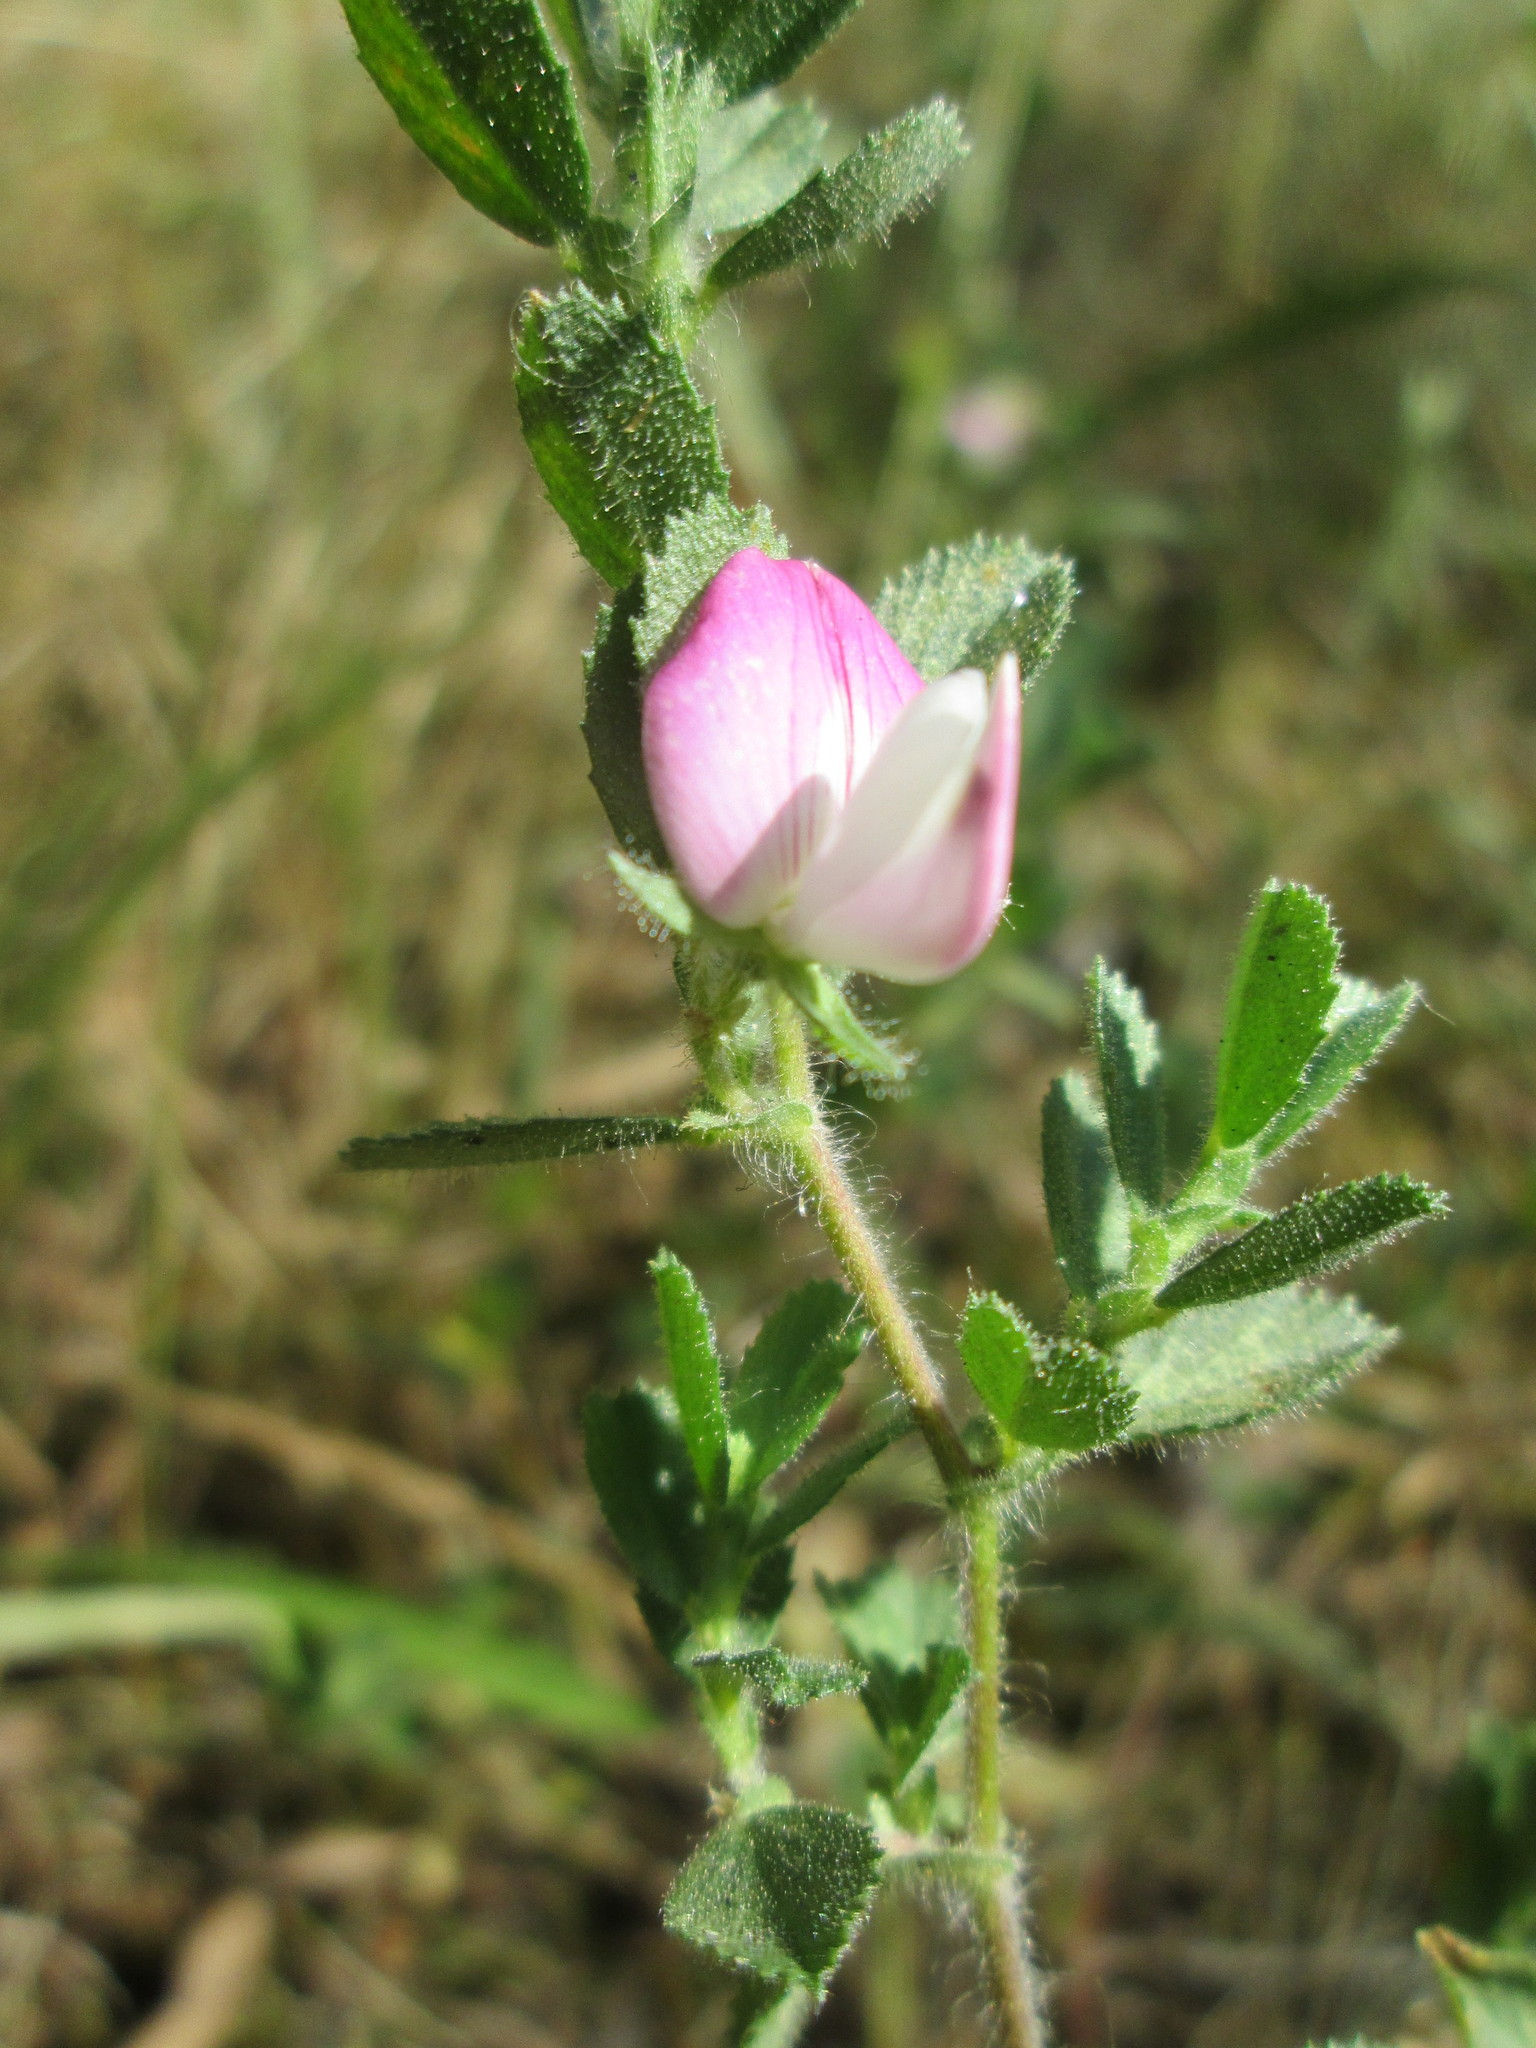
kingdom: Plantae
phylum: Tracheophyta
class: Magnoliopsida
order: Fabales
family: Fabaceae
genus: Ononis
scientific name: Ononis spinosa
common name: Spiny restharrow
